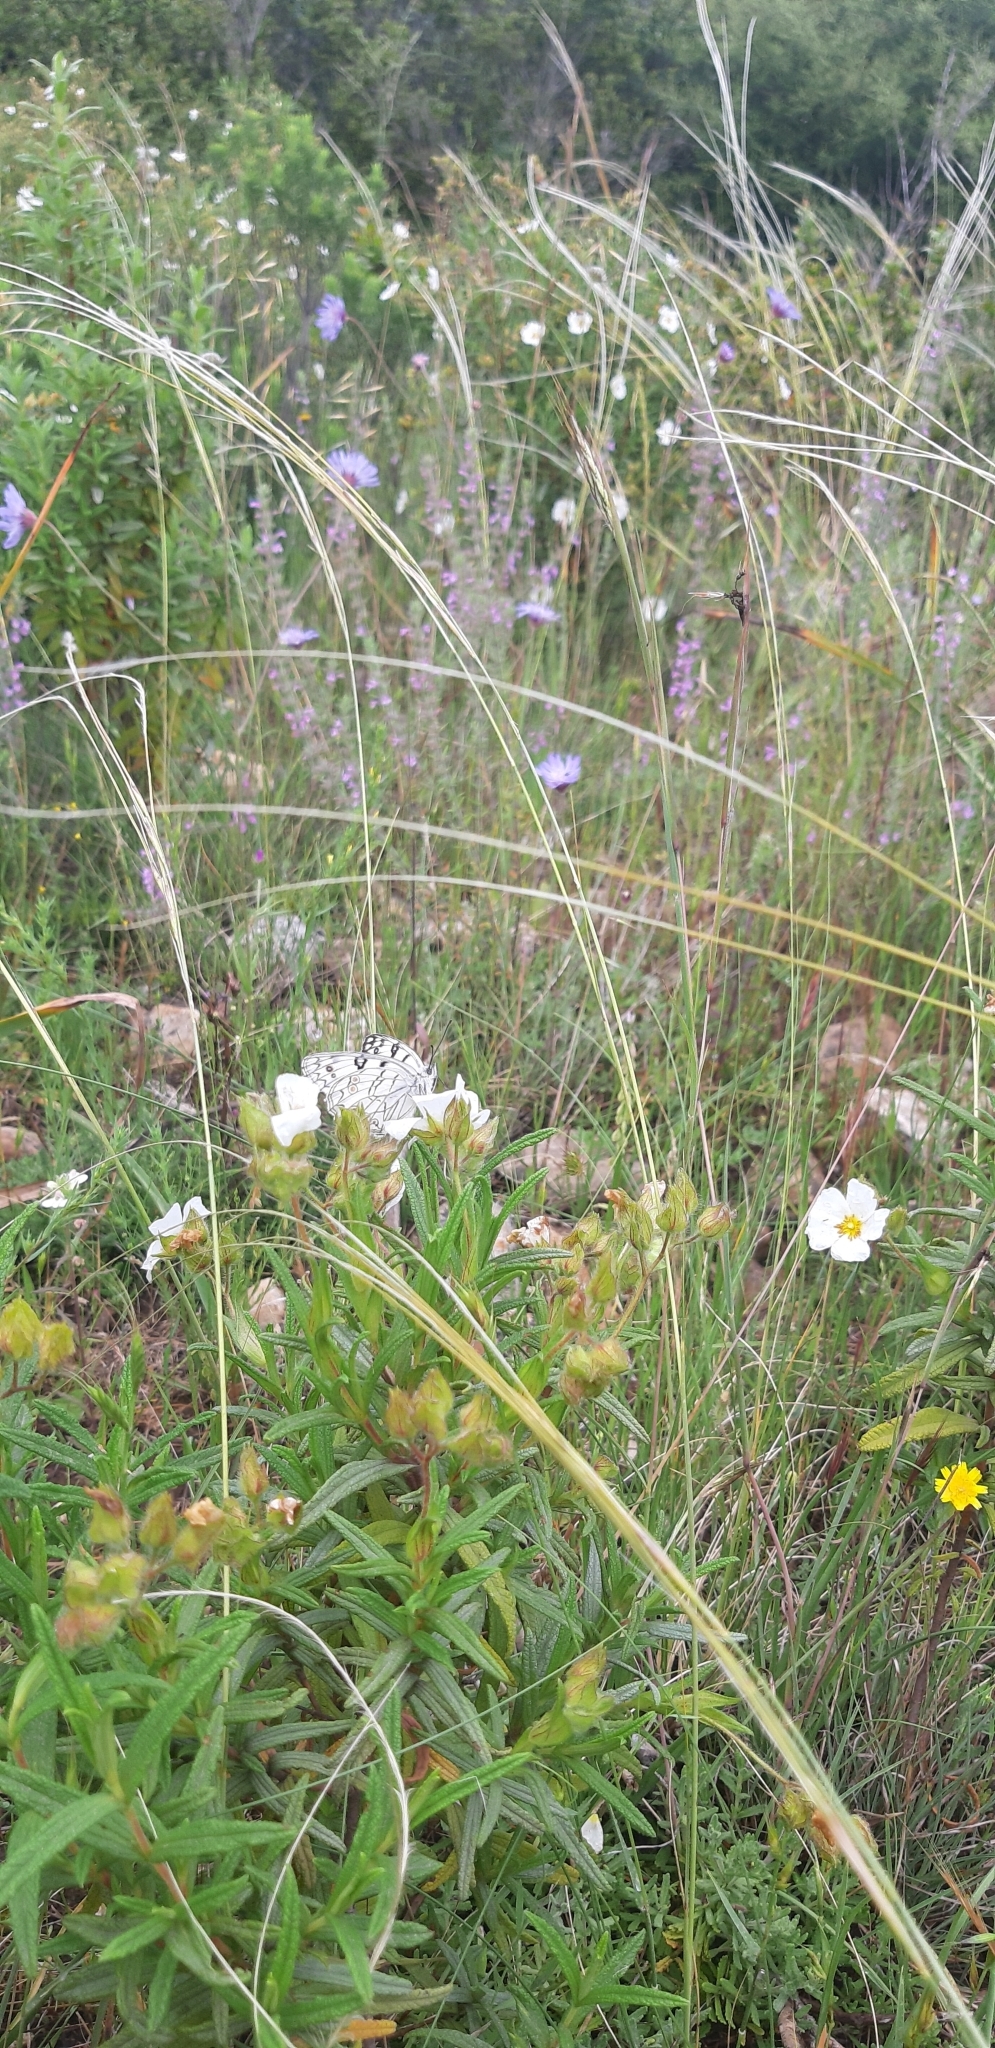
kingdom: Animalia
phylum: Arthropoda
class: Insecta
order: Lepidoptera
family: Nymphalidae
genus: Melanargia
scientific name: Melanargia arge
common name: Italian marbled white
